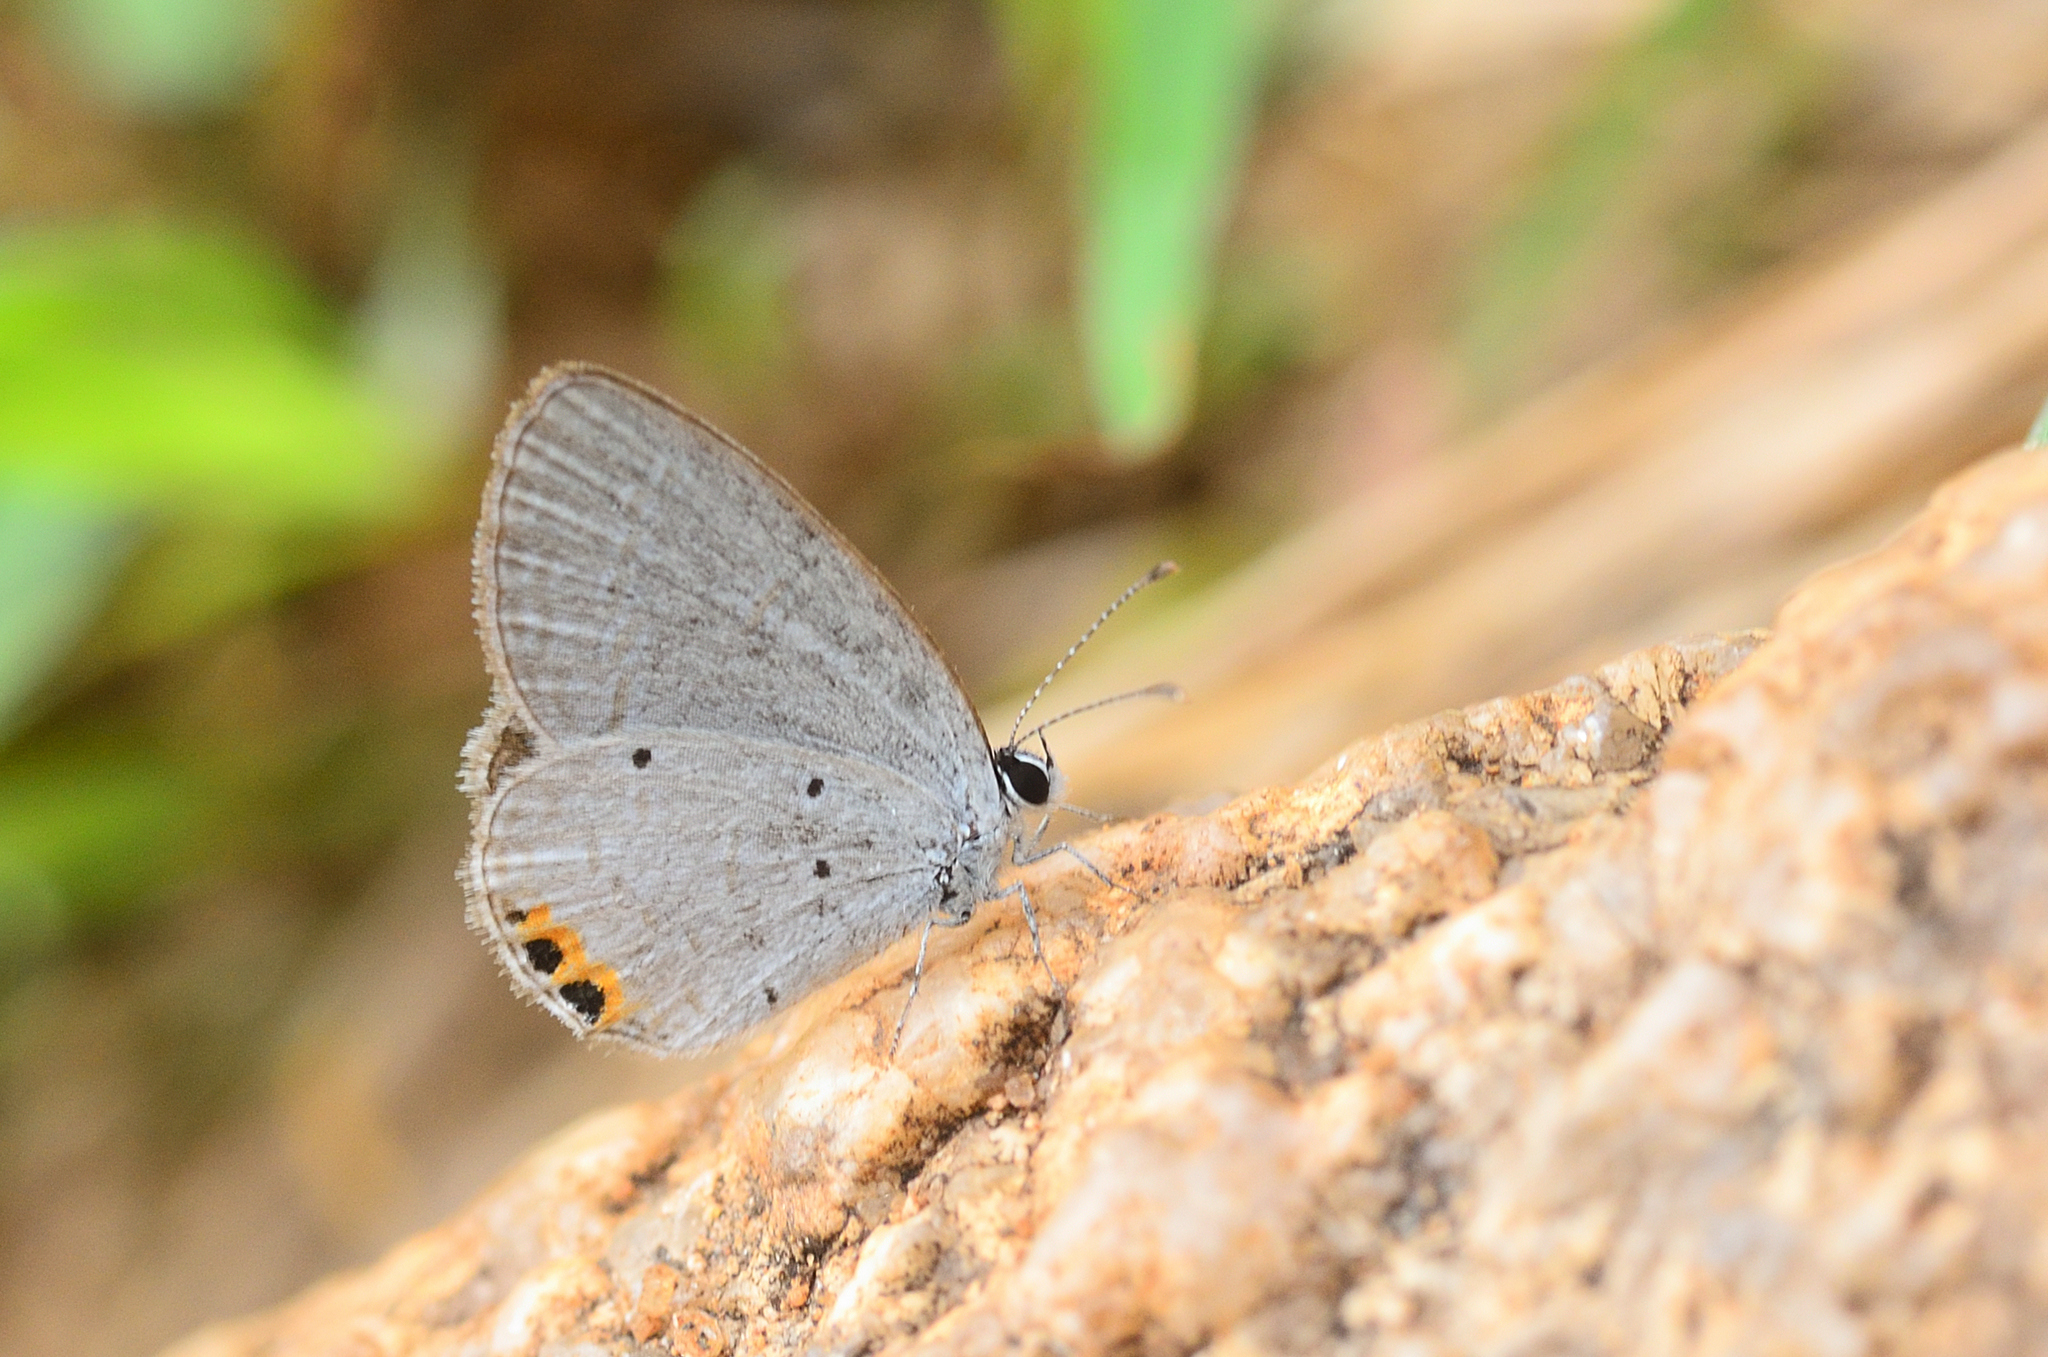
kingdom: Animalia
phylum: Arthropoda
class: Insecta
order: Lepidoptera
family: Lycaenidae
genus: Everes
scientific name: Everes lacturnus
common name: Orange-tipped pea-blue
